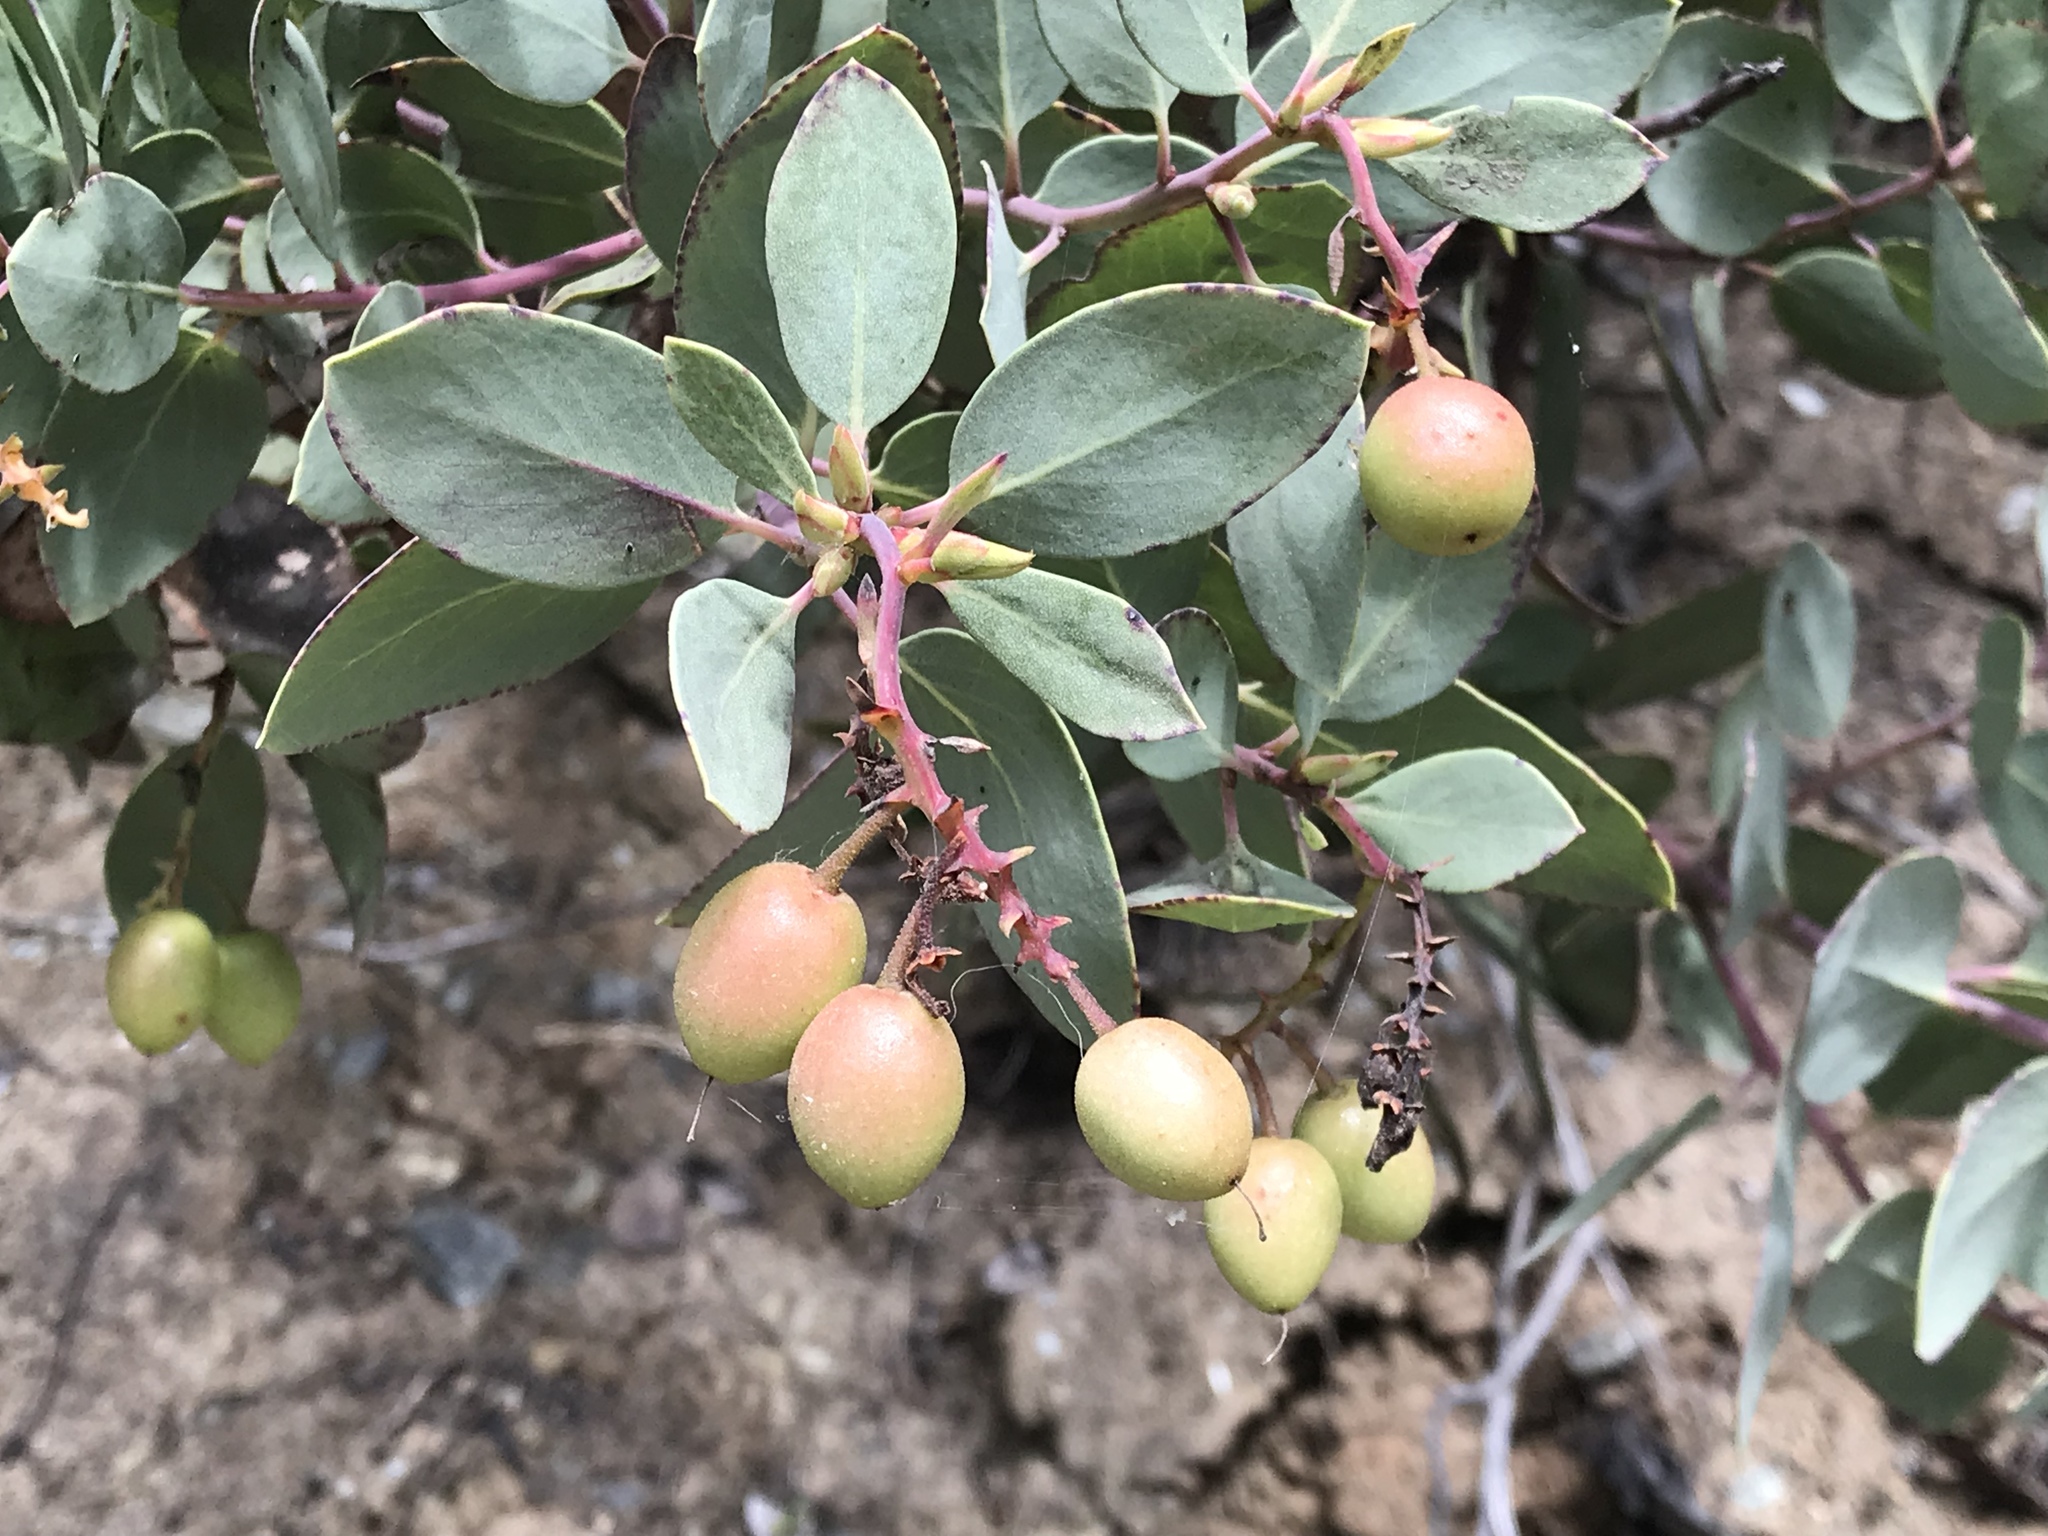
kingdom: Plantae
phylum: Tracheophyta
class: Magnoliopsida
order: Ericales
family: Ericaceae
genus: Arctostaphylos
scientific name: Arctostaphylos glauca
